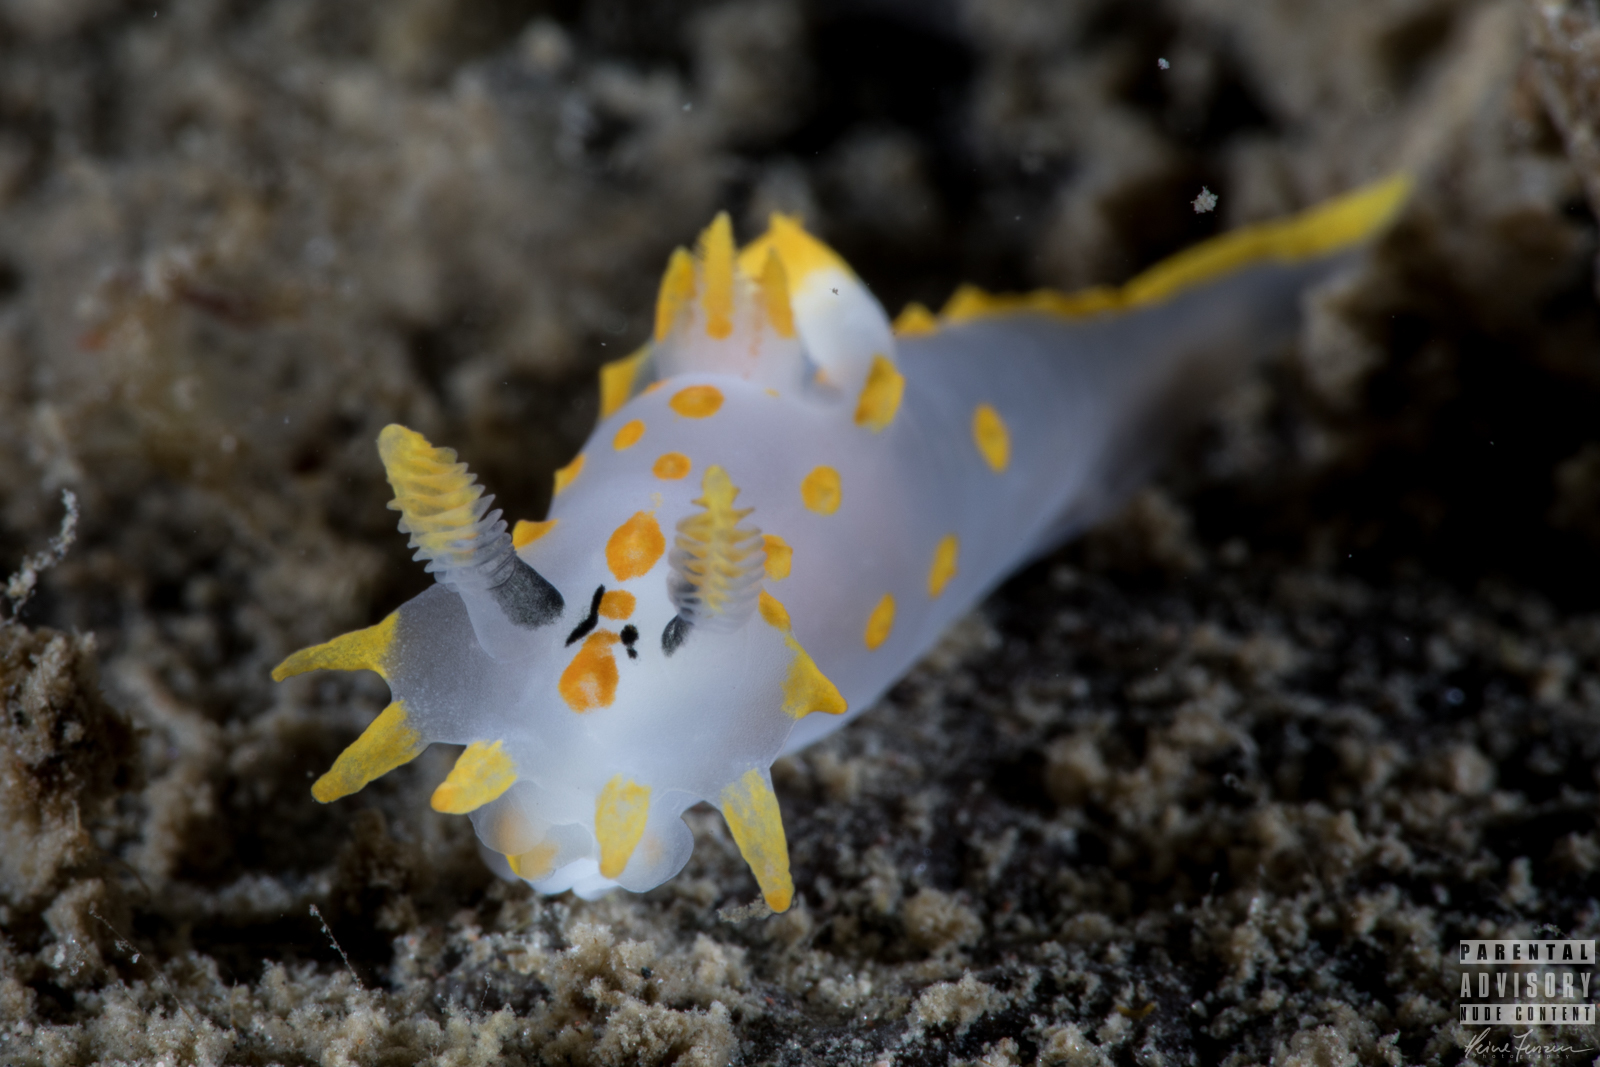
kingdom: Animalia
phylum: Mollusca
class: Gastropoda
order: Nudibranchia
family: Polyceridae
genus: Polycera
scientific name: Polycera quadrilineata
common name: Four-striped polycera
